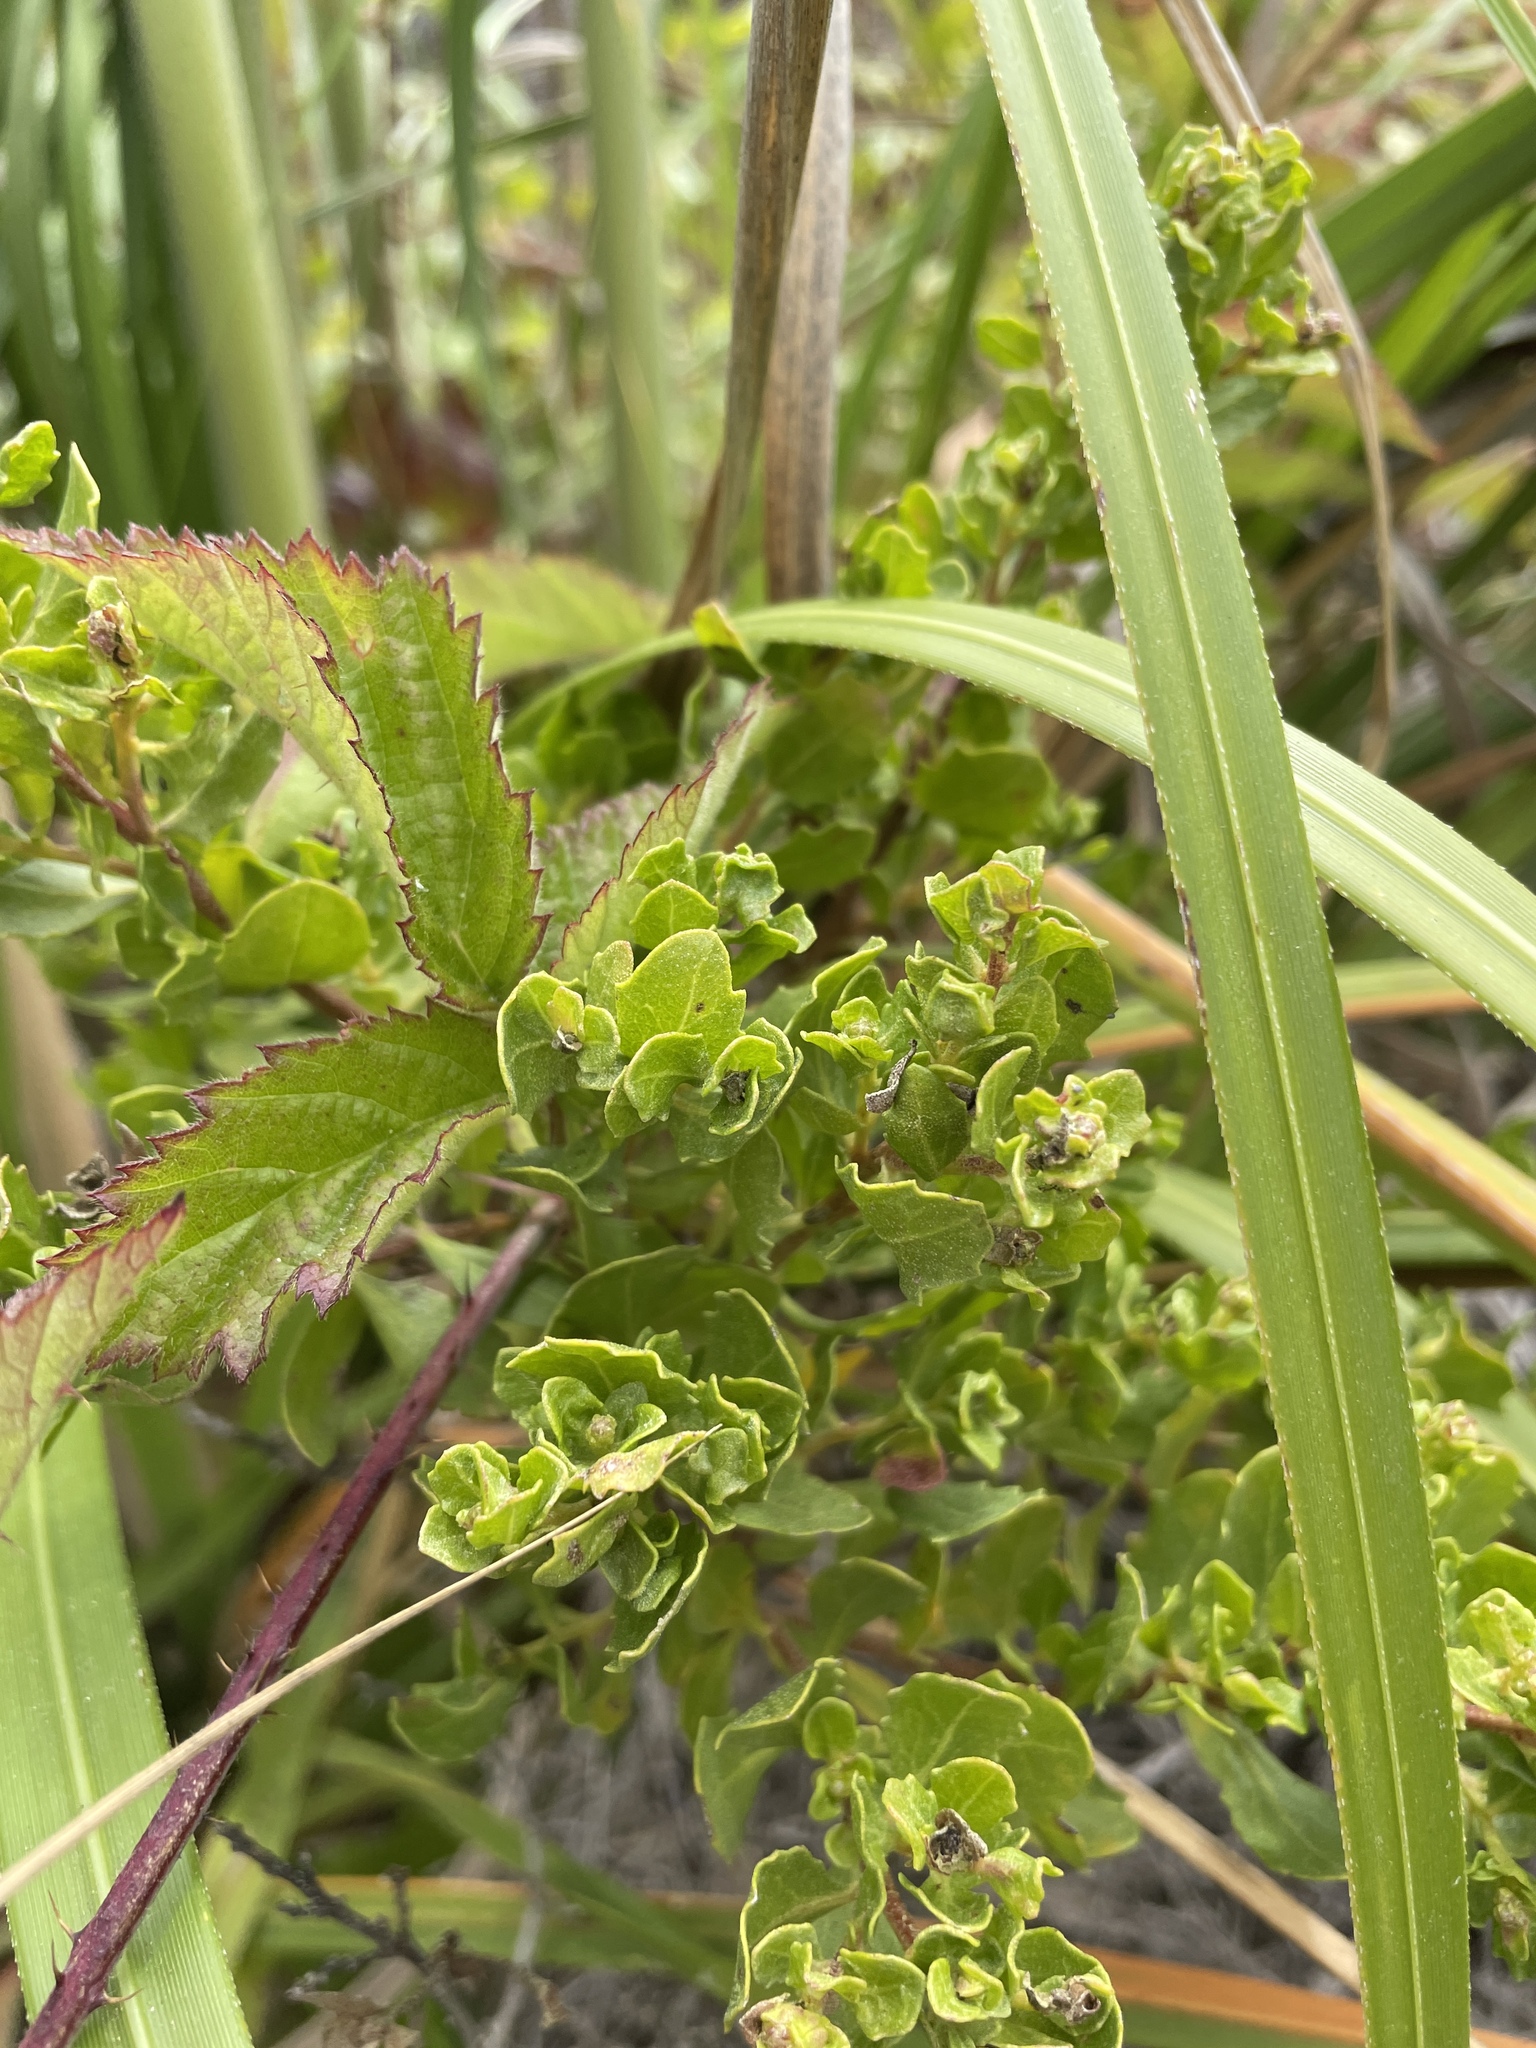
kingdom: Plantae
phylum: Tracheophyta
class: Magnoliopsida
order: Asterales
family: Asteraceae
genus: Baccharis
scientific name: Baccharis pilularis
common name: Coyotebrush
